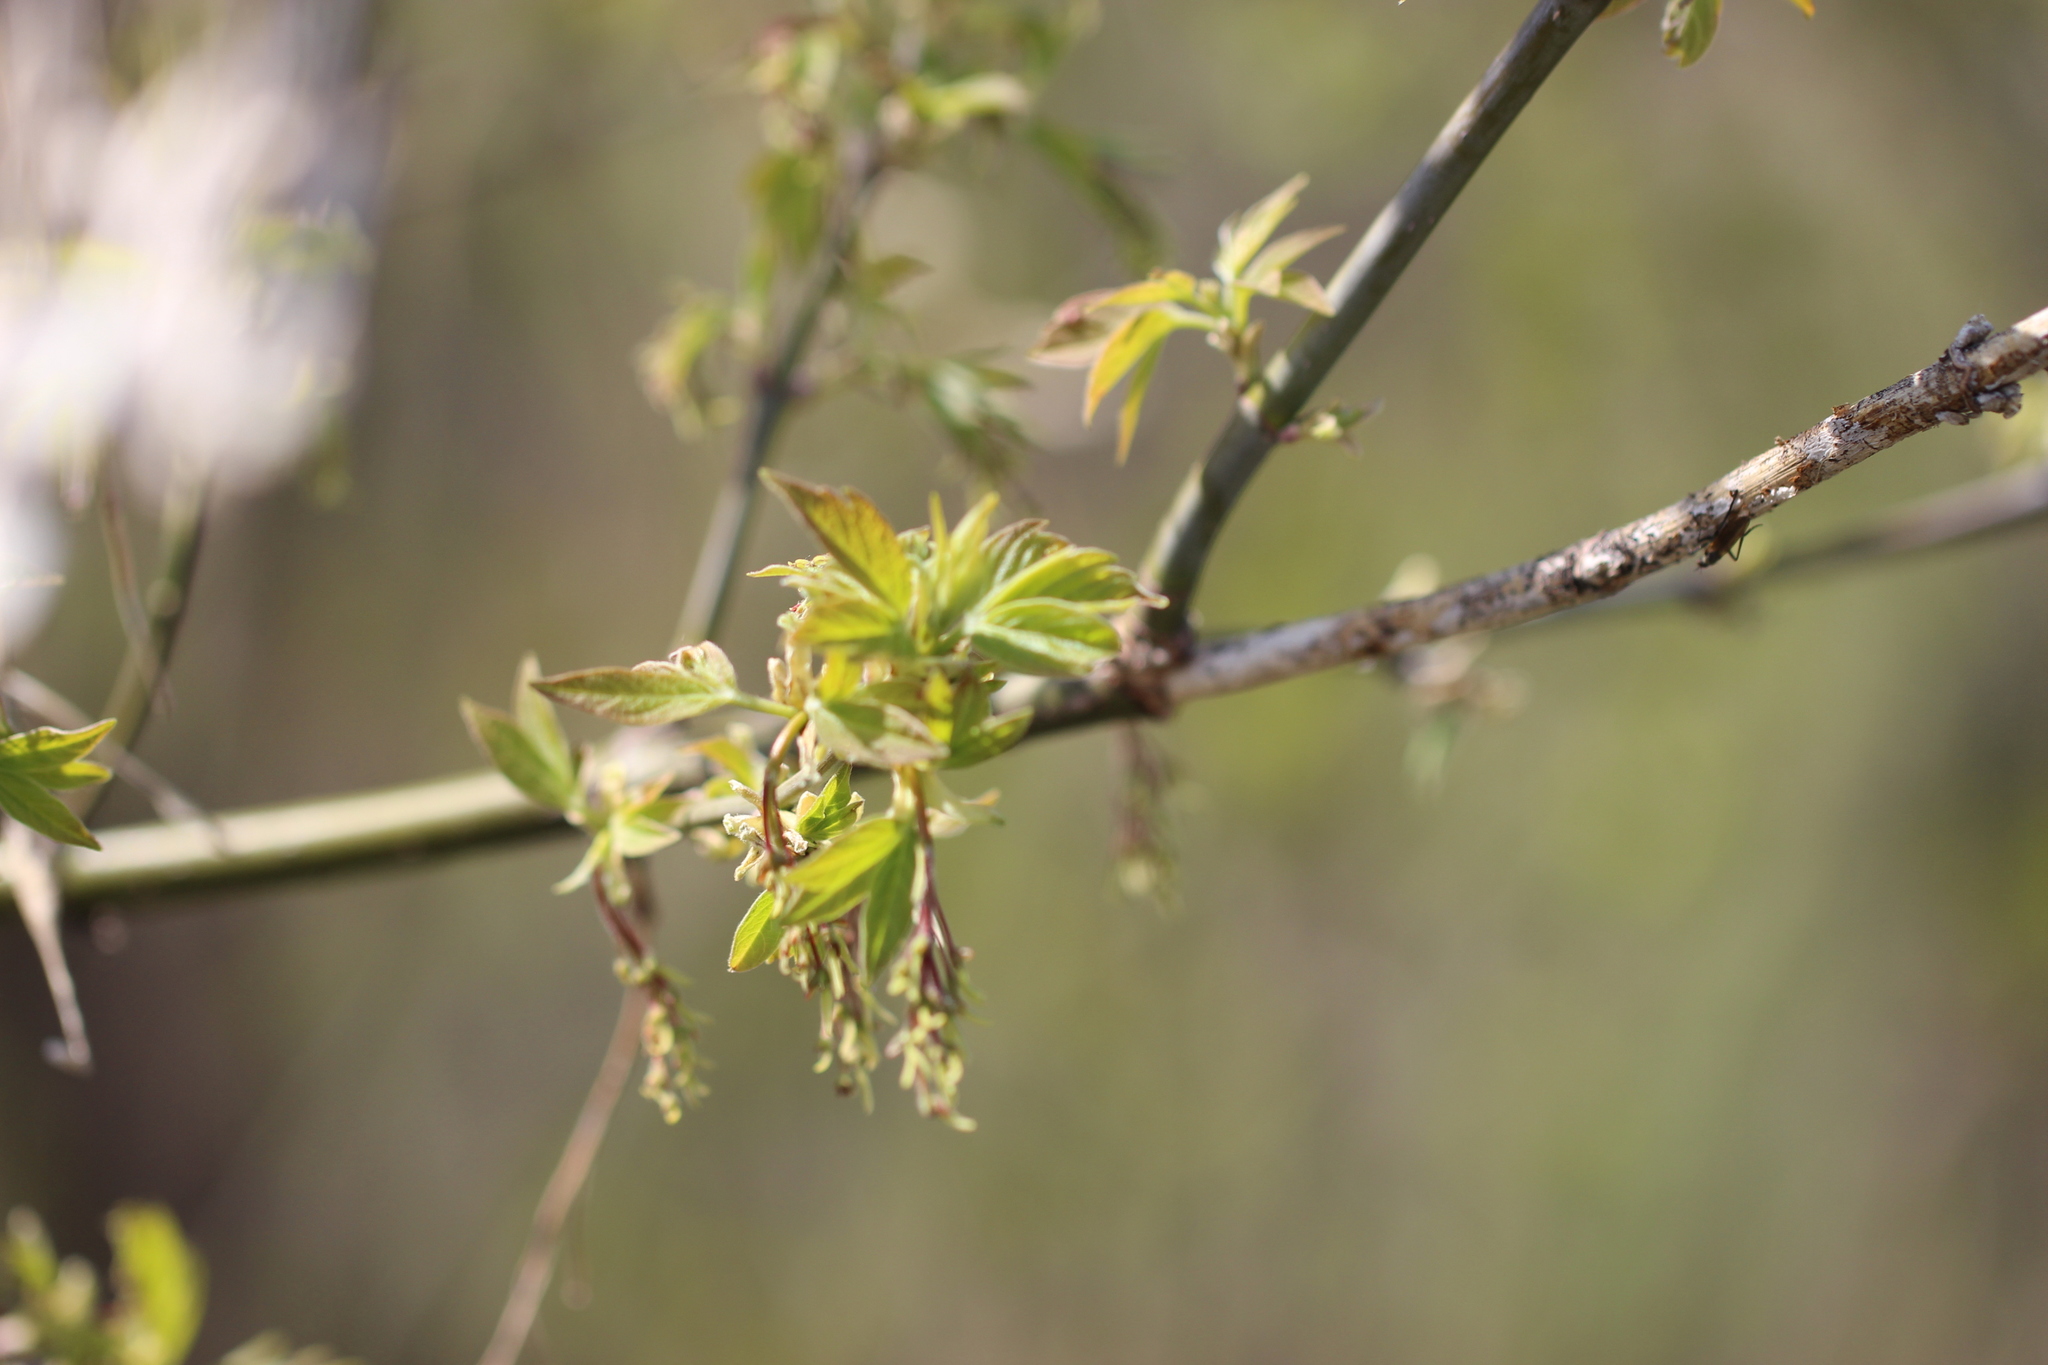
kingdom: Plantae
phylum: Tracheophyta
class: Magnoliopsida
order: Sapindales
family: Sapindaceae
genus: Acer
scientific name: Acer negundo
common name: Ashleaf maple
